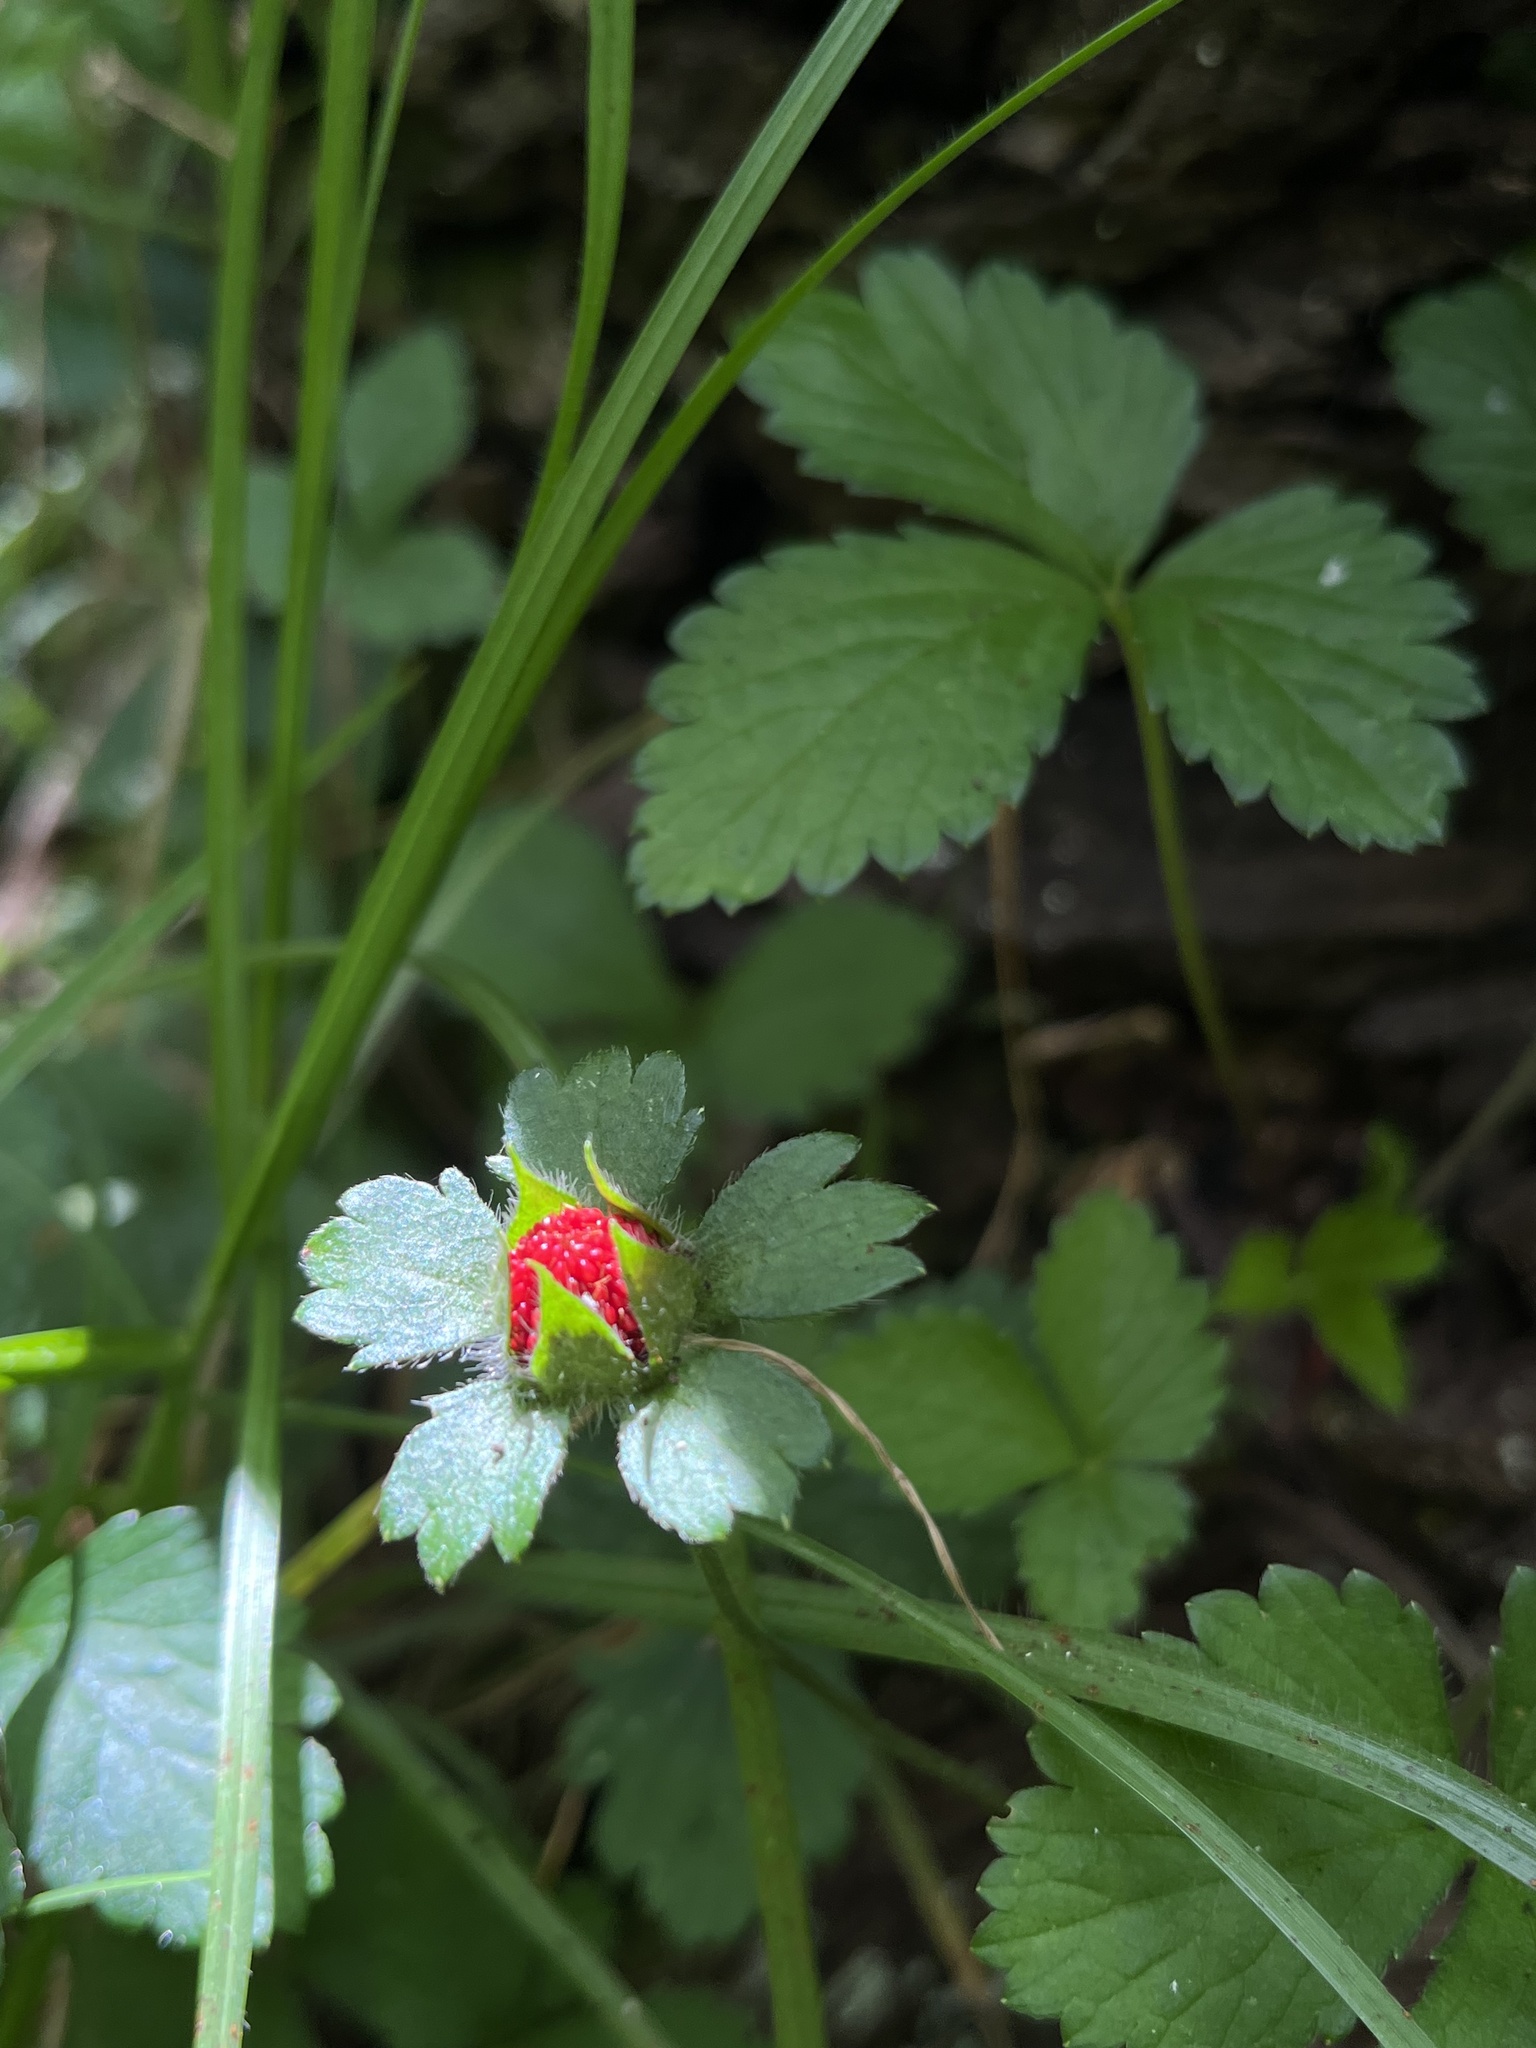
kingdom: Plantae
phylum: Tracheophyta
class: Magnoliopsida
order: Rosales
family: Rosaceae
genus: Potentilla
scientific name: Potentilla indica
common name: Yellow-flowered strawberry
